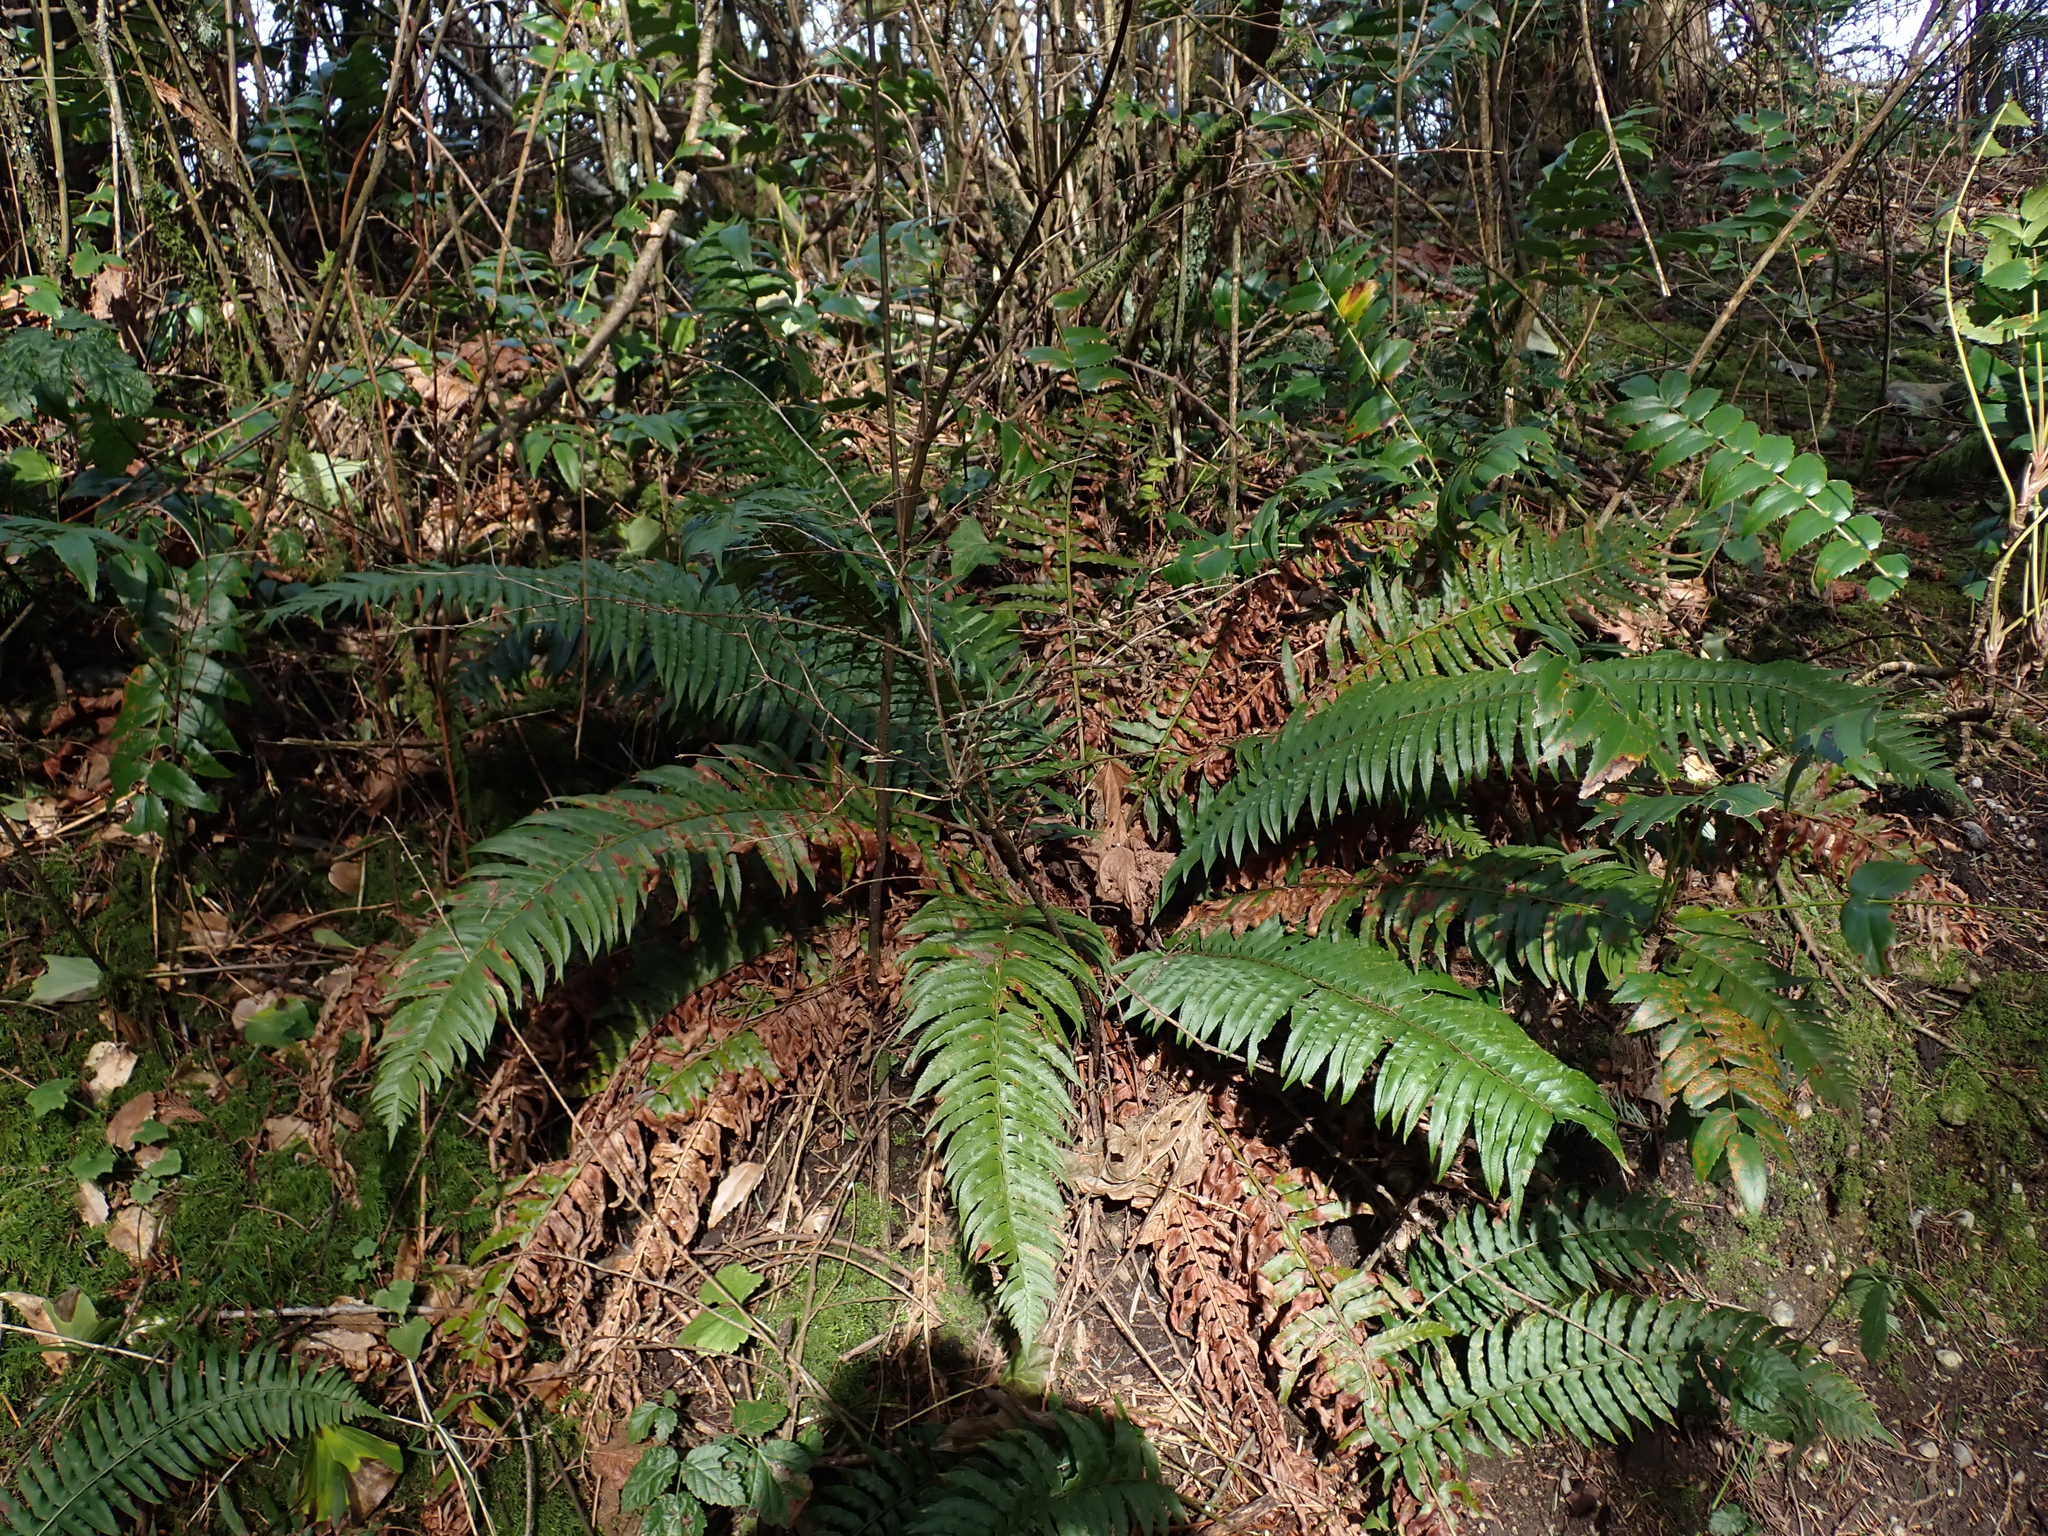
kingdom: Plantae
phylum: Tracheophyta
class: Polypodiopsida
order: Polypodiales
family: Dryopteridaceae
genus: Polystichum
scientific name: Polystichum munitum
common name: Western sword-fern
